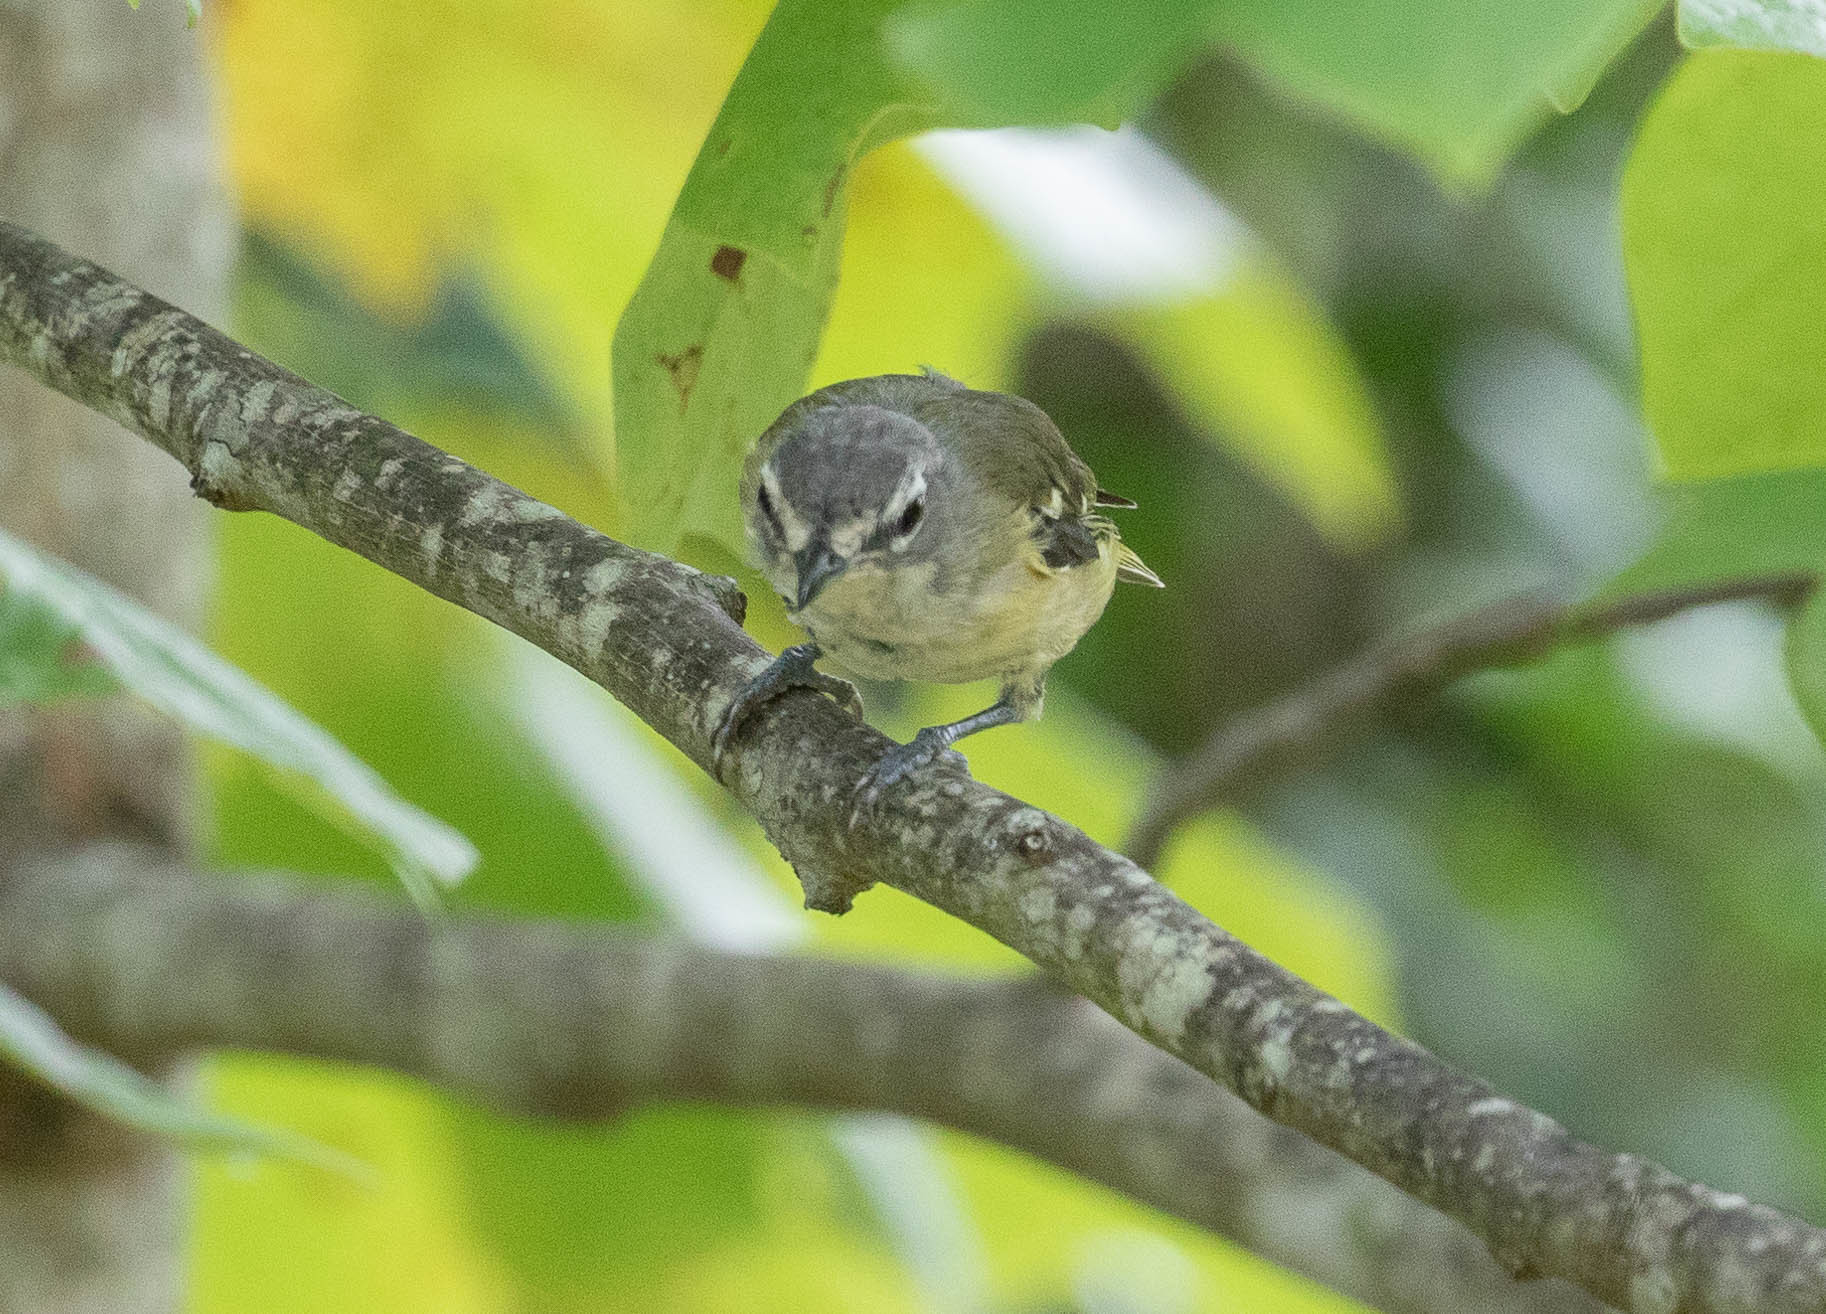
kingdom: Animalia
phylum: Chordata
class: Aves
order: Passeriformes
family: Vireonidae
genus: Vireo
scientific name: Vireo solitarius
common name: Blue-headed vireo
